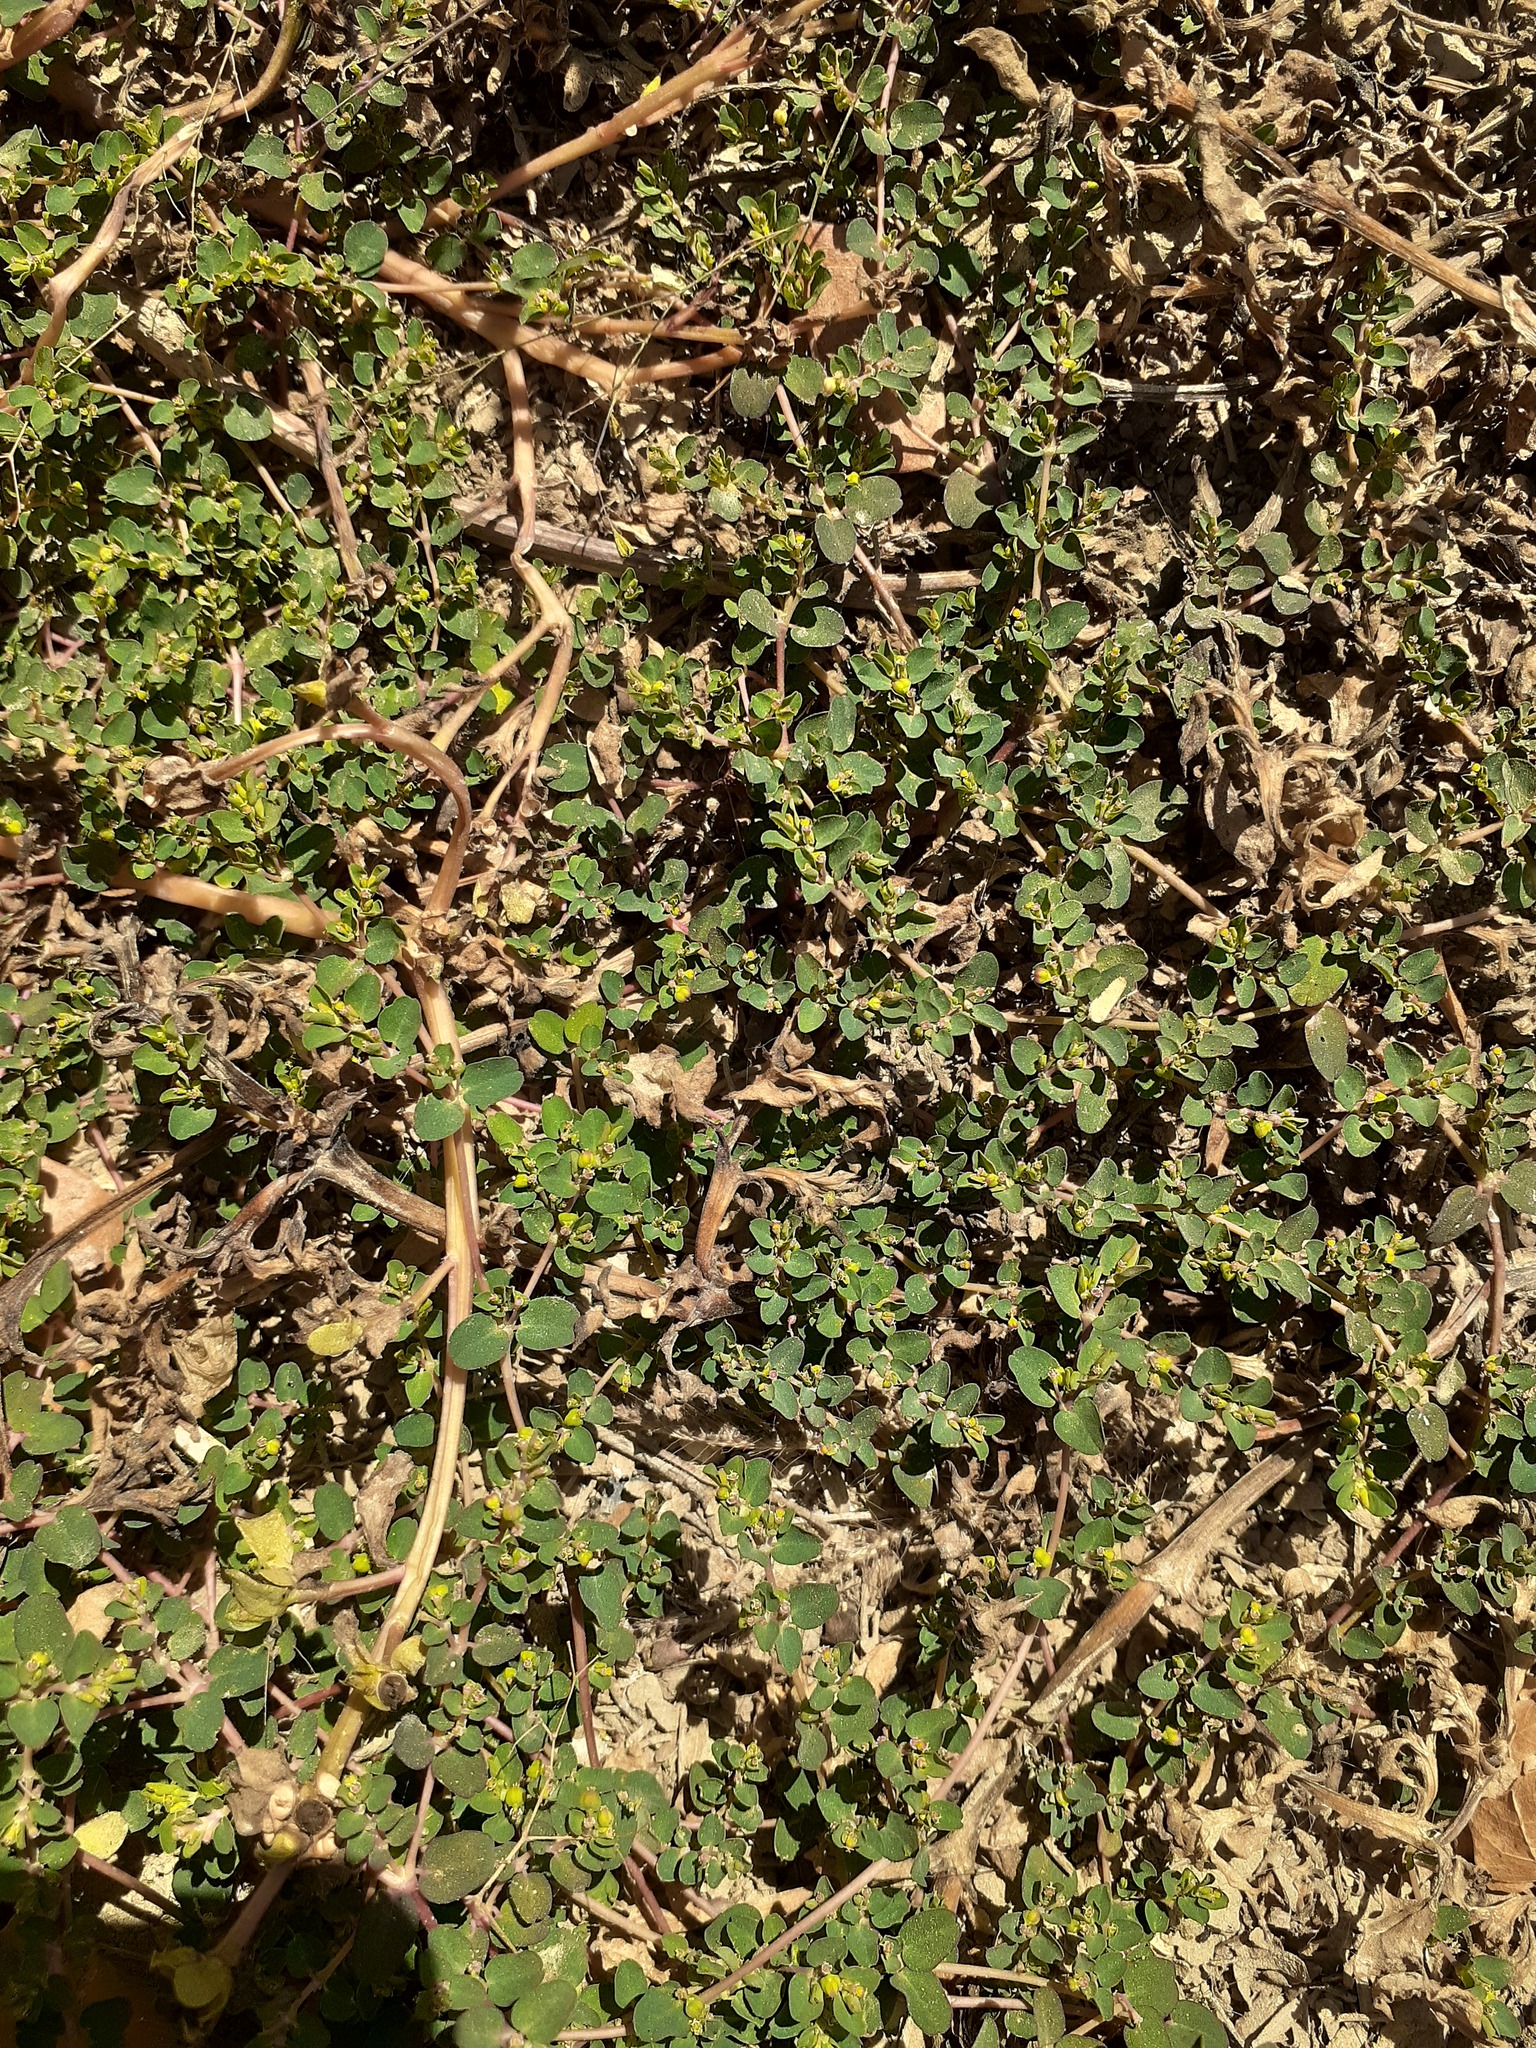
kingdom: Plantae
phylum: Tracheophyta
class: Magnoliopsida
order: Malpighiales
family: Euphorbiaceae
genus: Euphorbia
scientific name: Euphorbia serpens
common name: Matted sandmat
